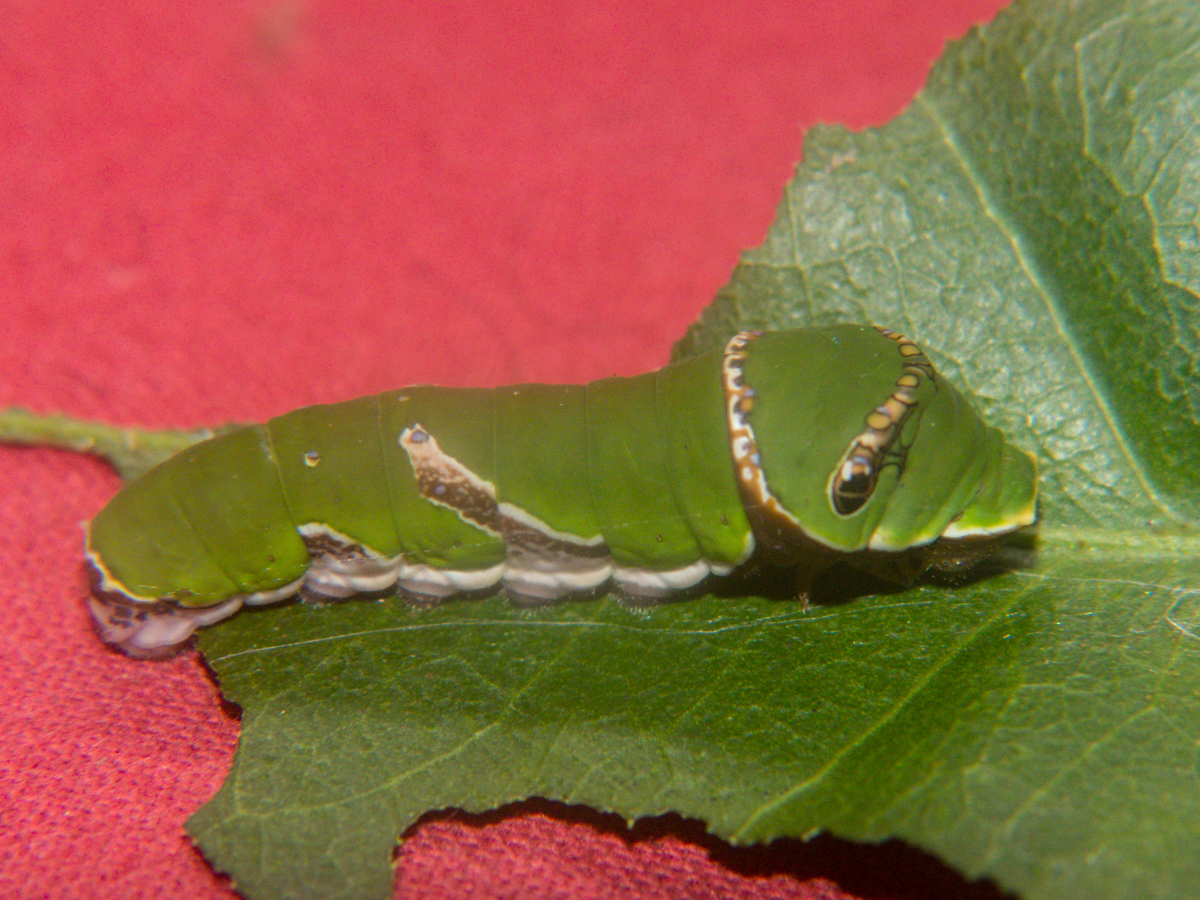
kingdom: Animalia
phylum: Arthropoda
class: Insecta
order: Lepidoptera
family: Papilionidae
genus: Papilio
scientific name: Papilio polytes
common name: Common mormon
